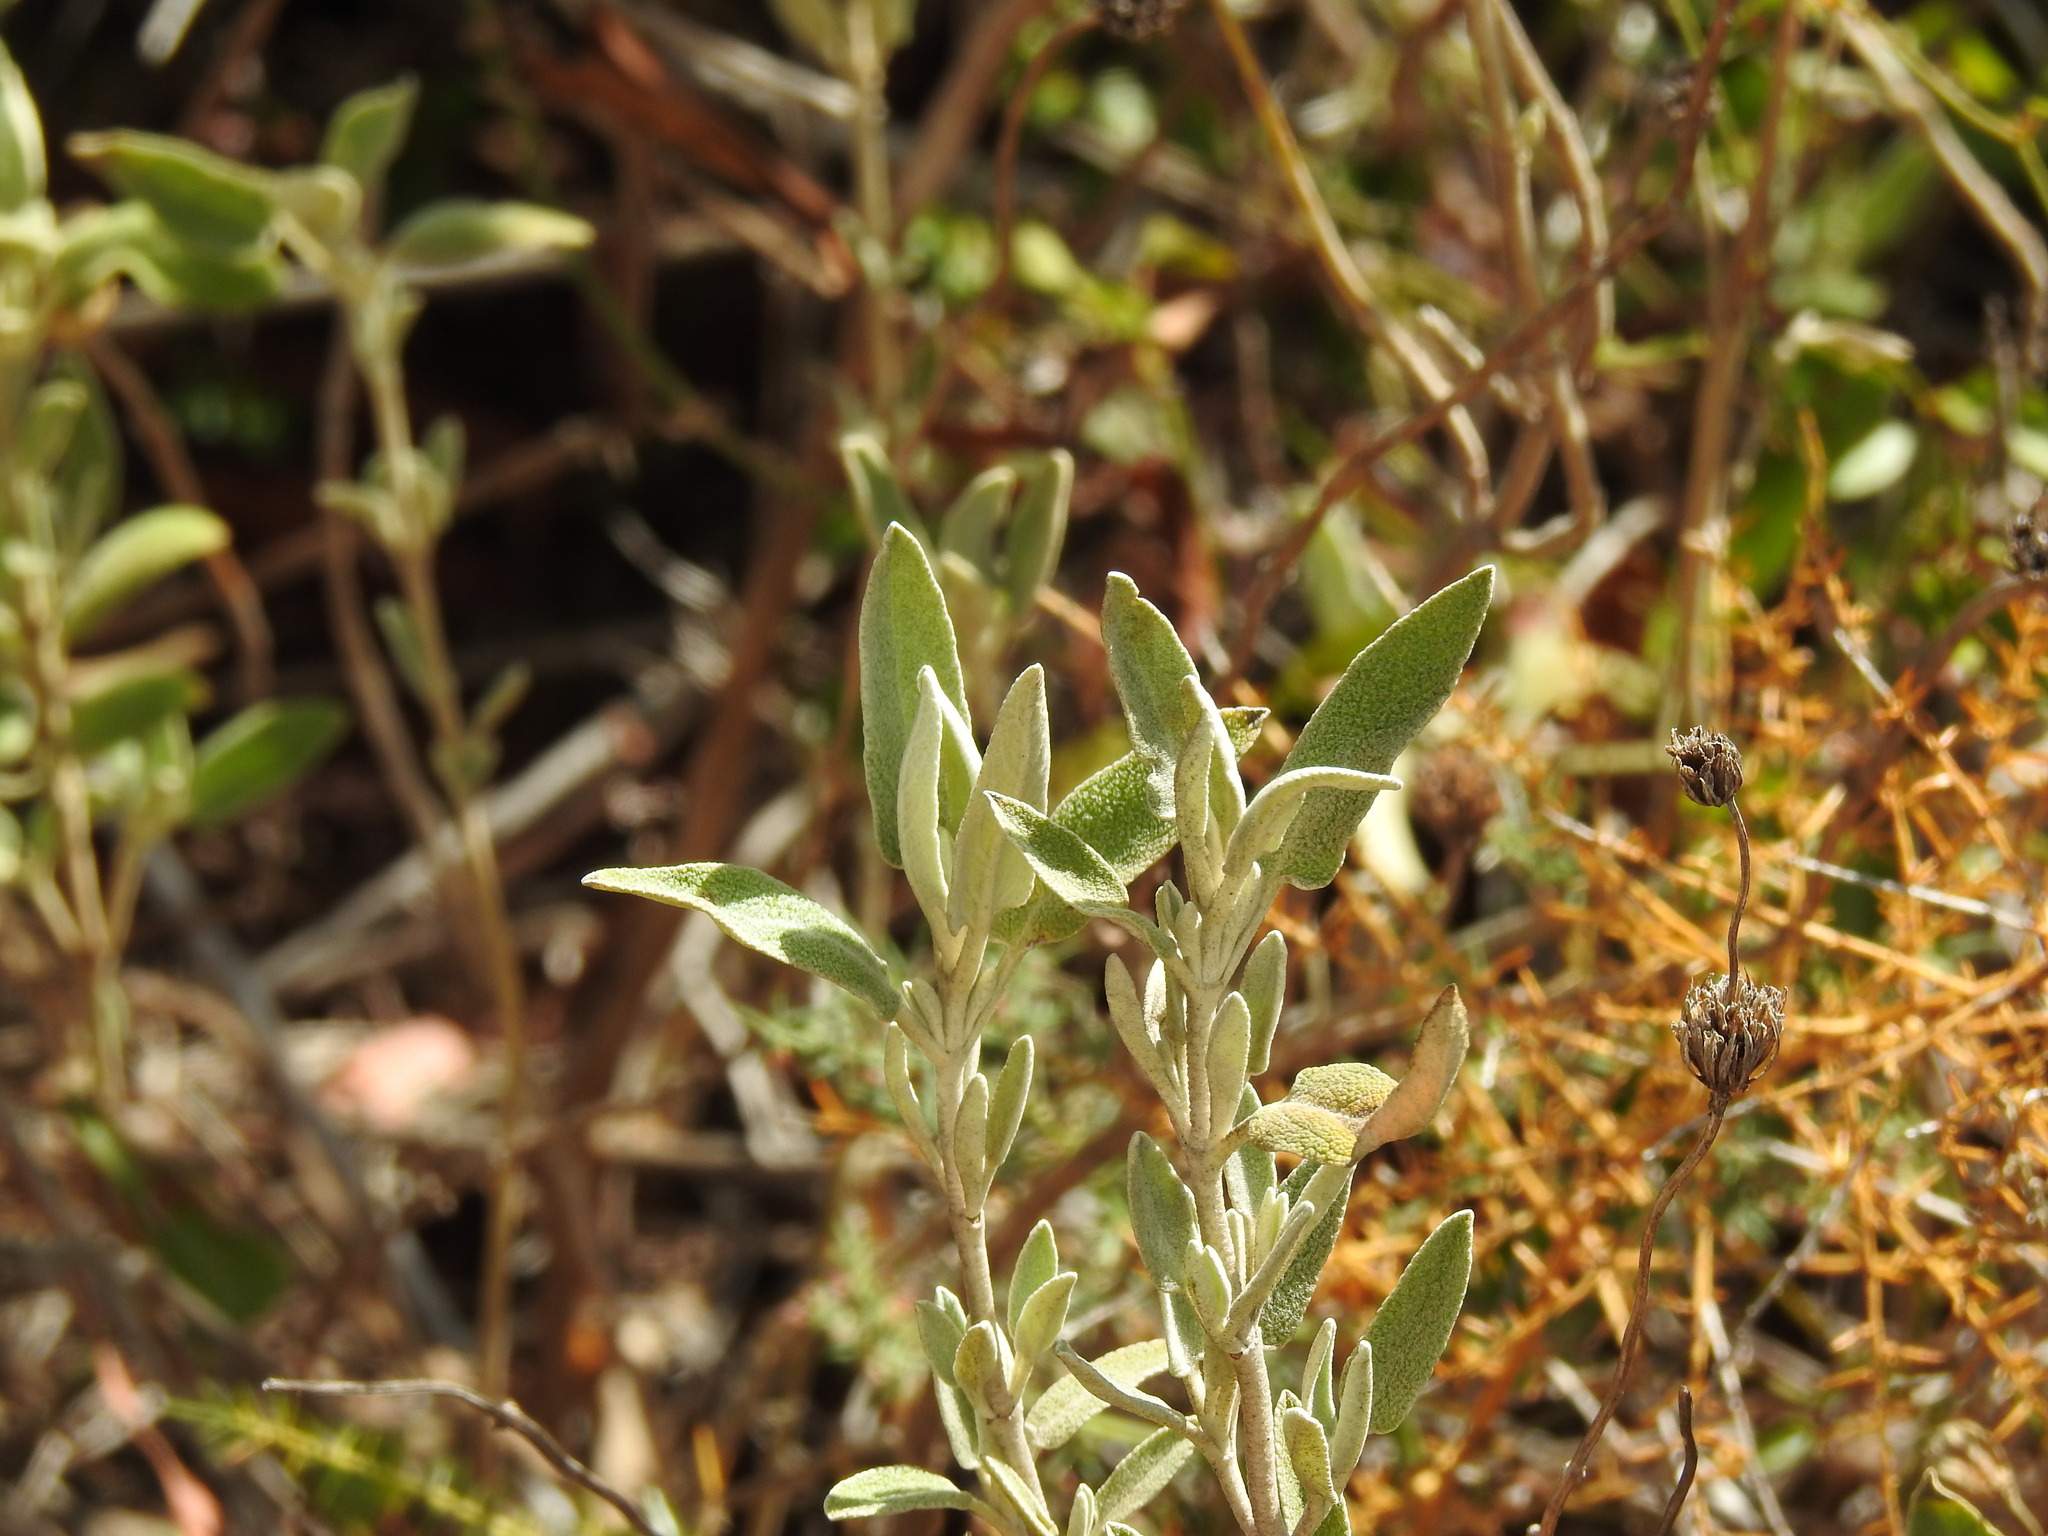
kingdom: Plantae
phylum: Tracheophyta
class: Magnoliopsida
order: Lamiales
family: Lamiaceae
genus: Phlomis
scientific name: Phlomis purpurea
